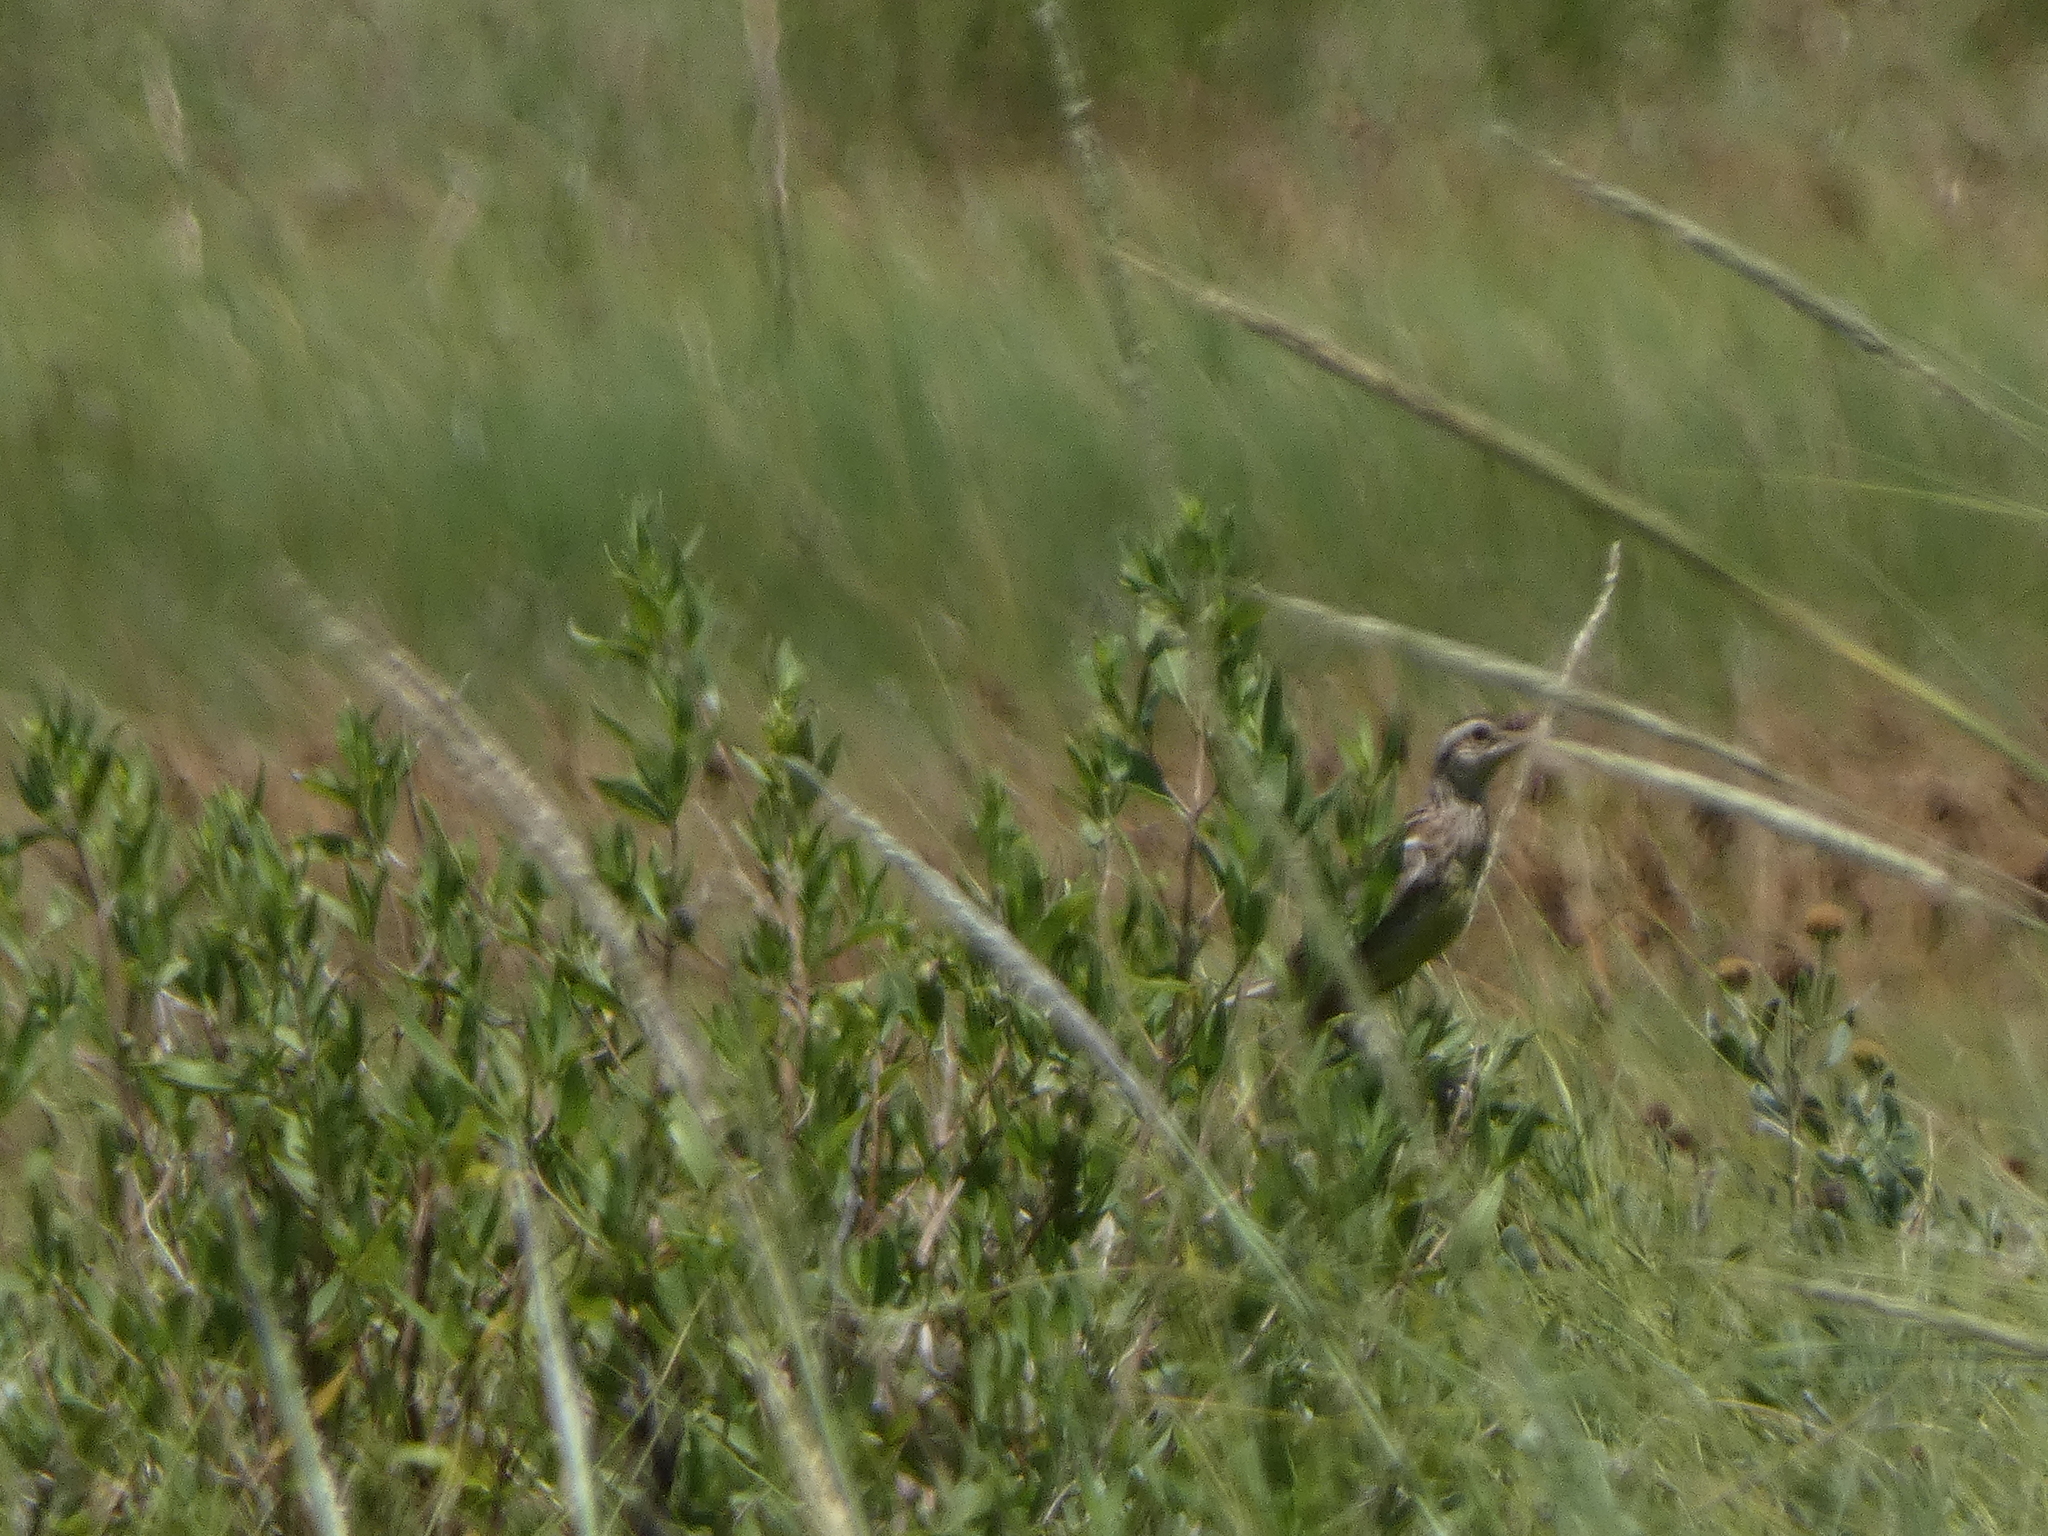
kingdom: Animalia
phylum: Chordata
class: Aves
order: Passeriformes
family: Icteridae
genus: Sturnella
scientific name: Sturnella magna
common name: Eastern meadowlark
